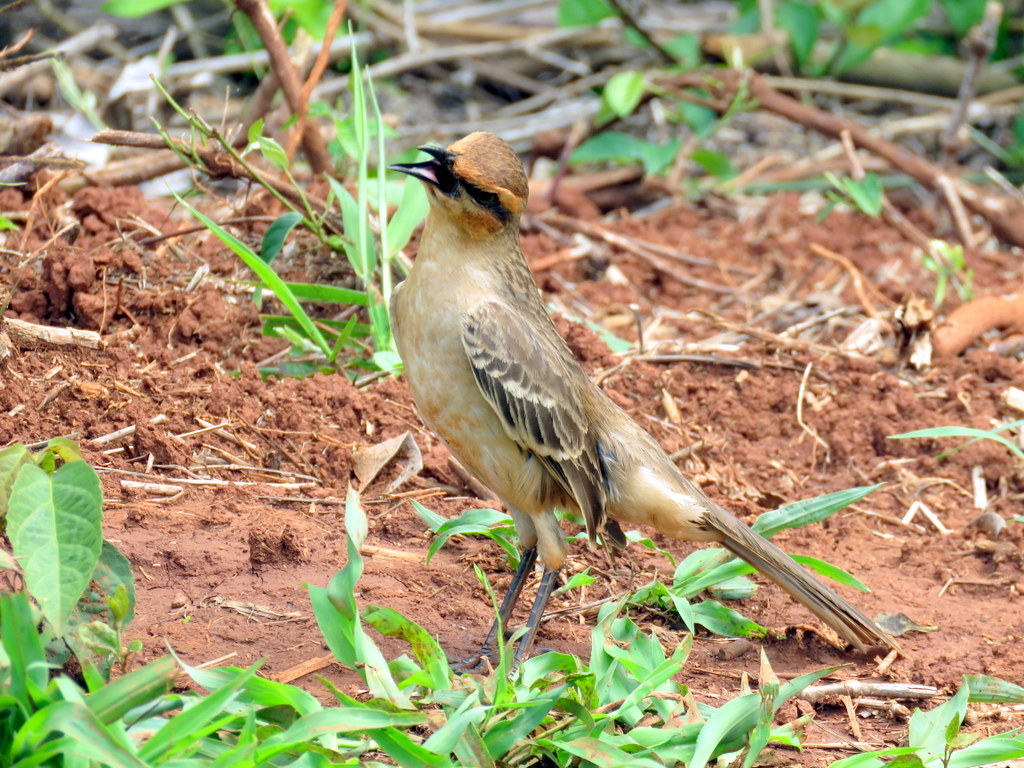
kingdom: Animalia
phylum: Chordata
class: Aves
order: Passeriformes
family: Mimidae
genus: Mimus
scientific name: Mimus saturninus
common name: Chalk-browed mockingbird
